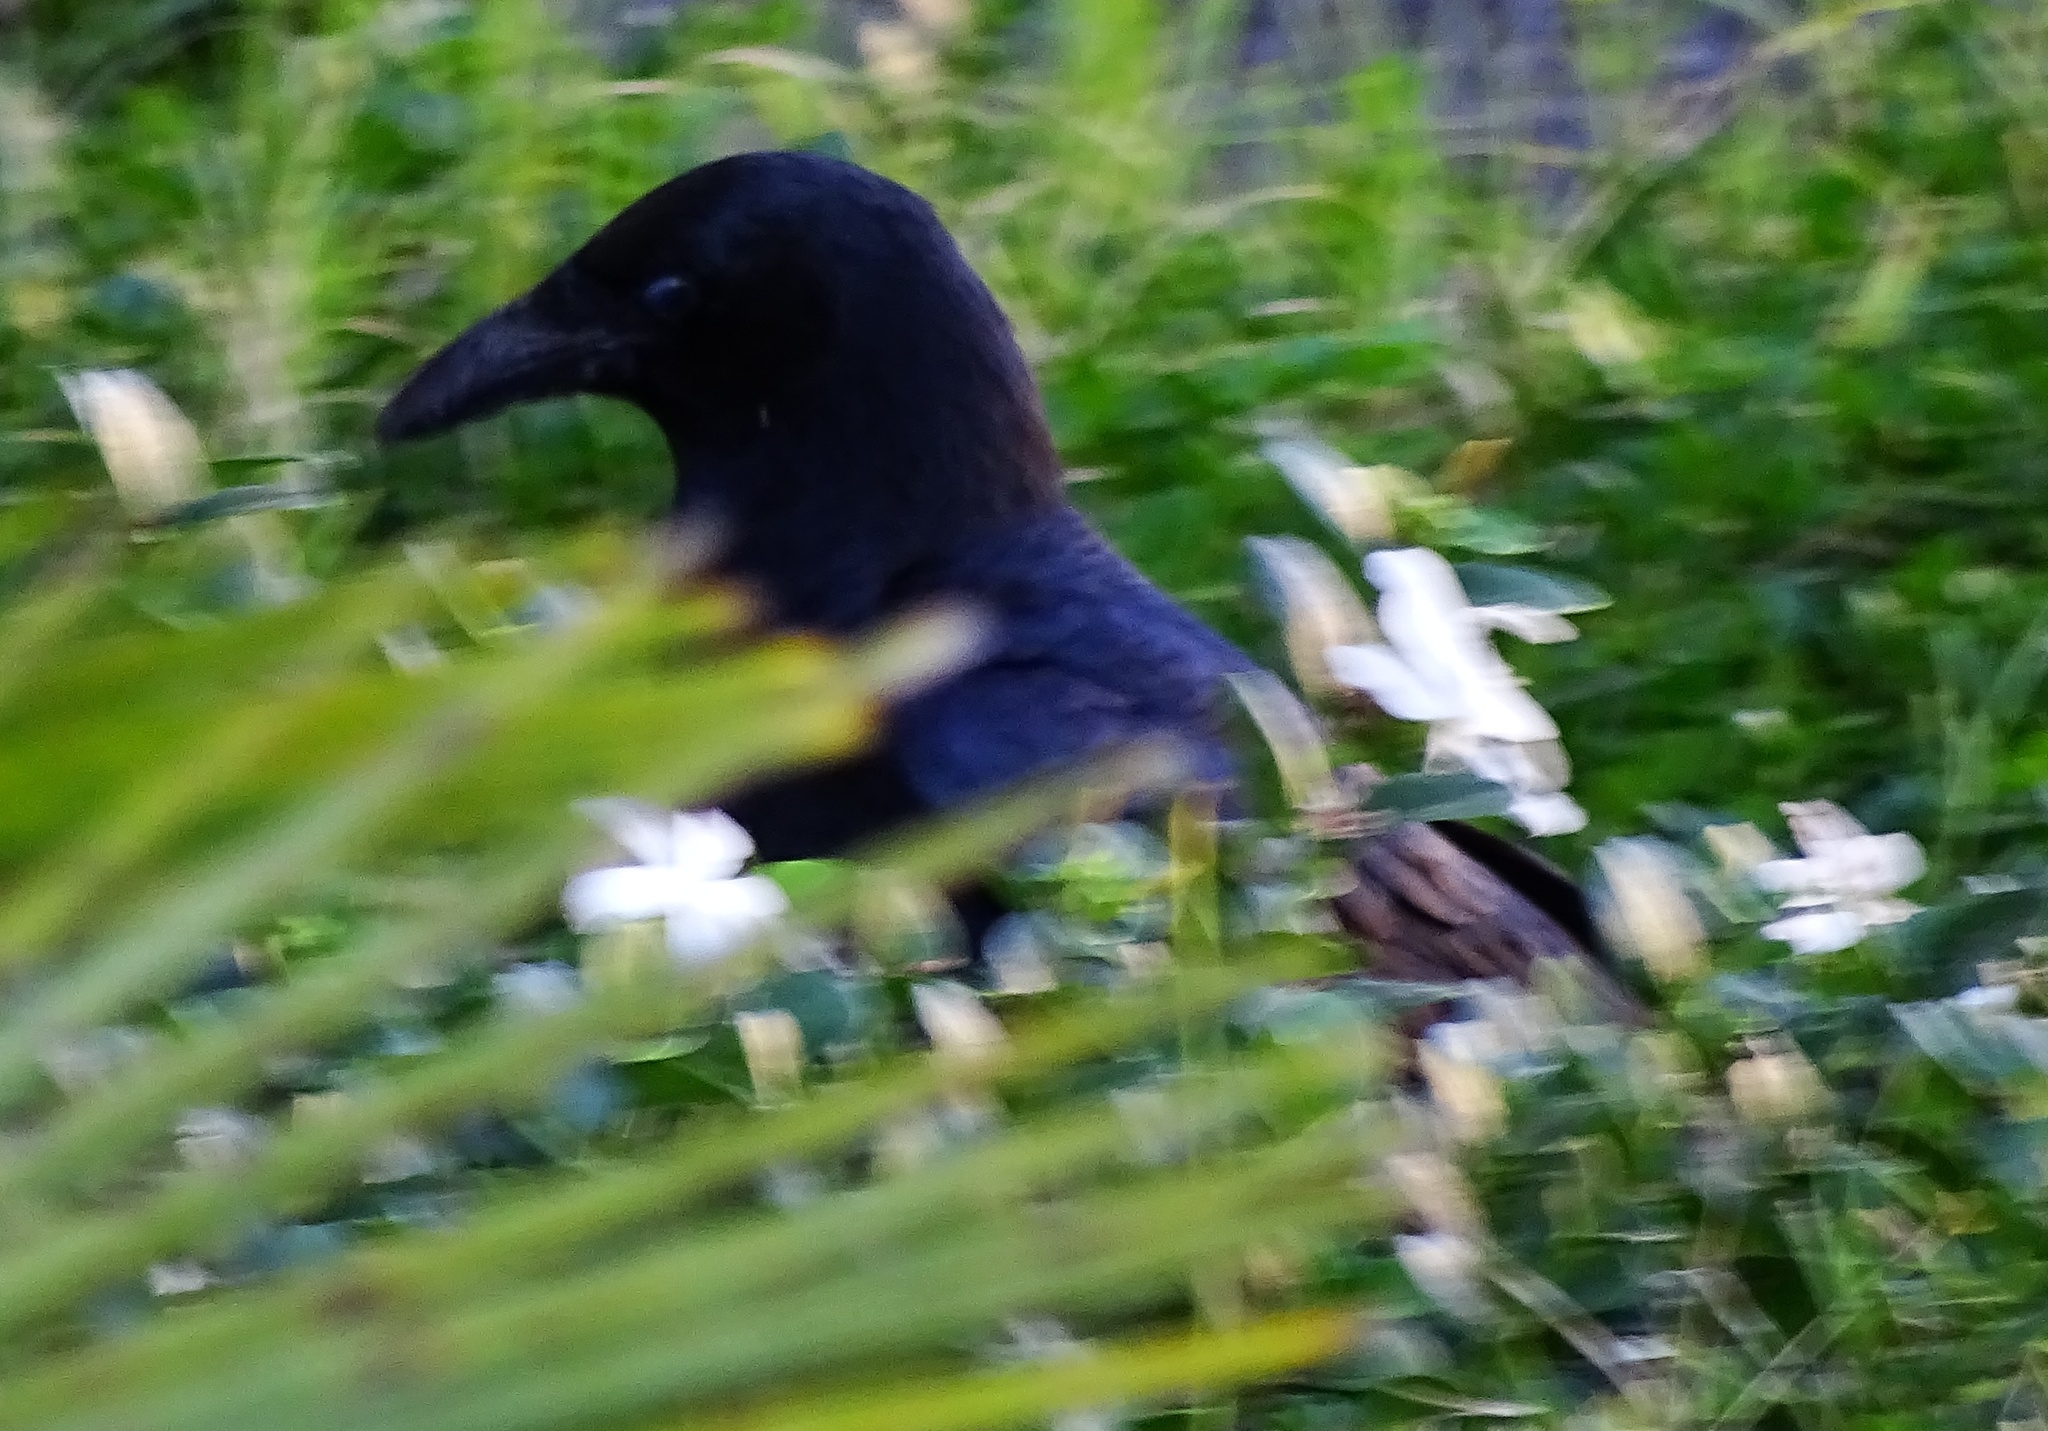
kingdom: Animalia
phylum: Chordata
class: Aves
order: Passeriformes
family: Corvidae
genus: Corvus
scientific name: Corvus brachyrhynchos
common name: American crow
